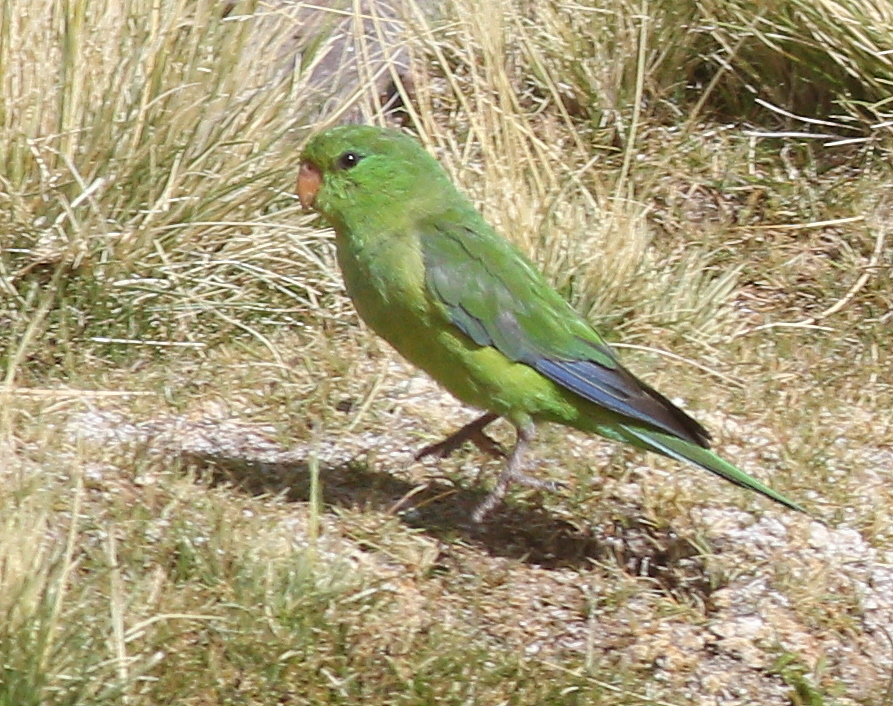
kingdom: Animalia
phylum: Chordata
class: Aves
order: Psittaciformes
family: Psittacidae
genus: Psilopsiagon
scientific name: Psilopsiagon aurifrons
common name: Mountain parakeet
